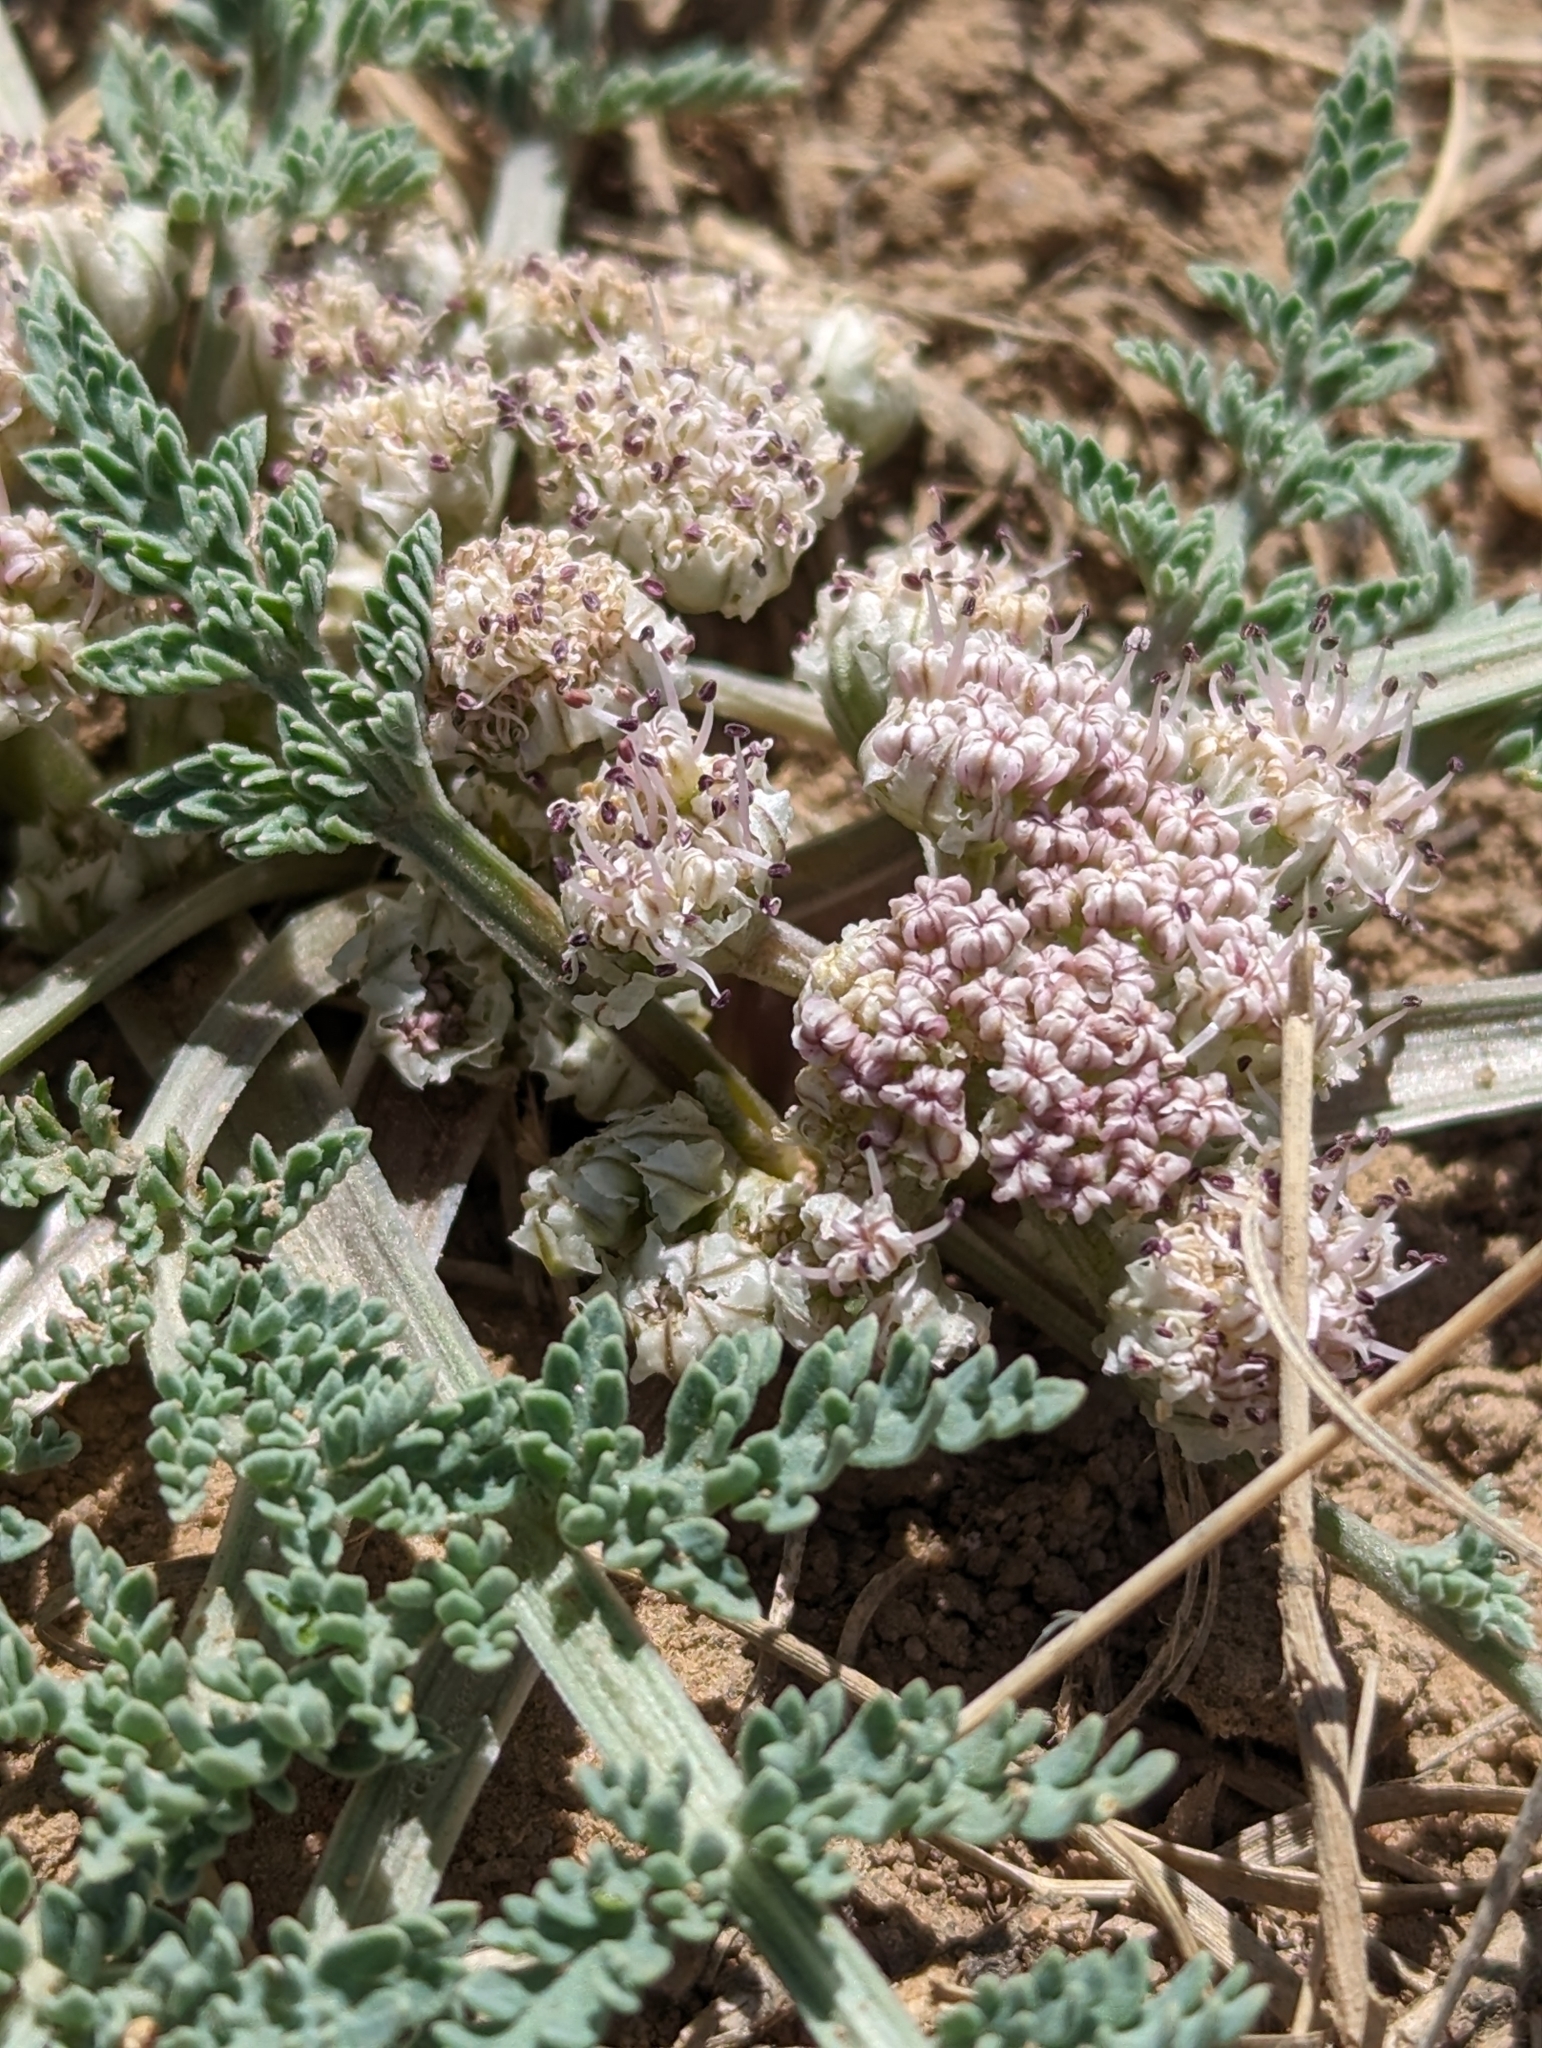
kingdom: Plantae
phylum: Tracheophyta
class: Magnoliopsida
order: Apiales
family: Apiaceae
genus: Vesper
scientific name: Vesper montanus
